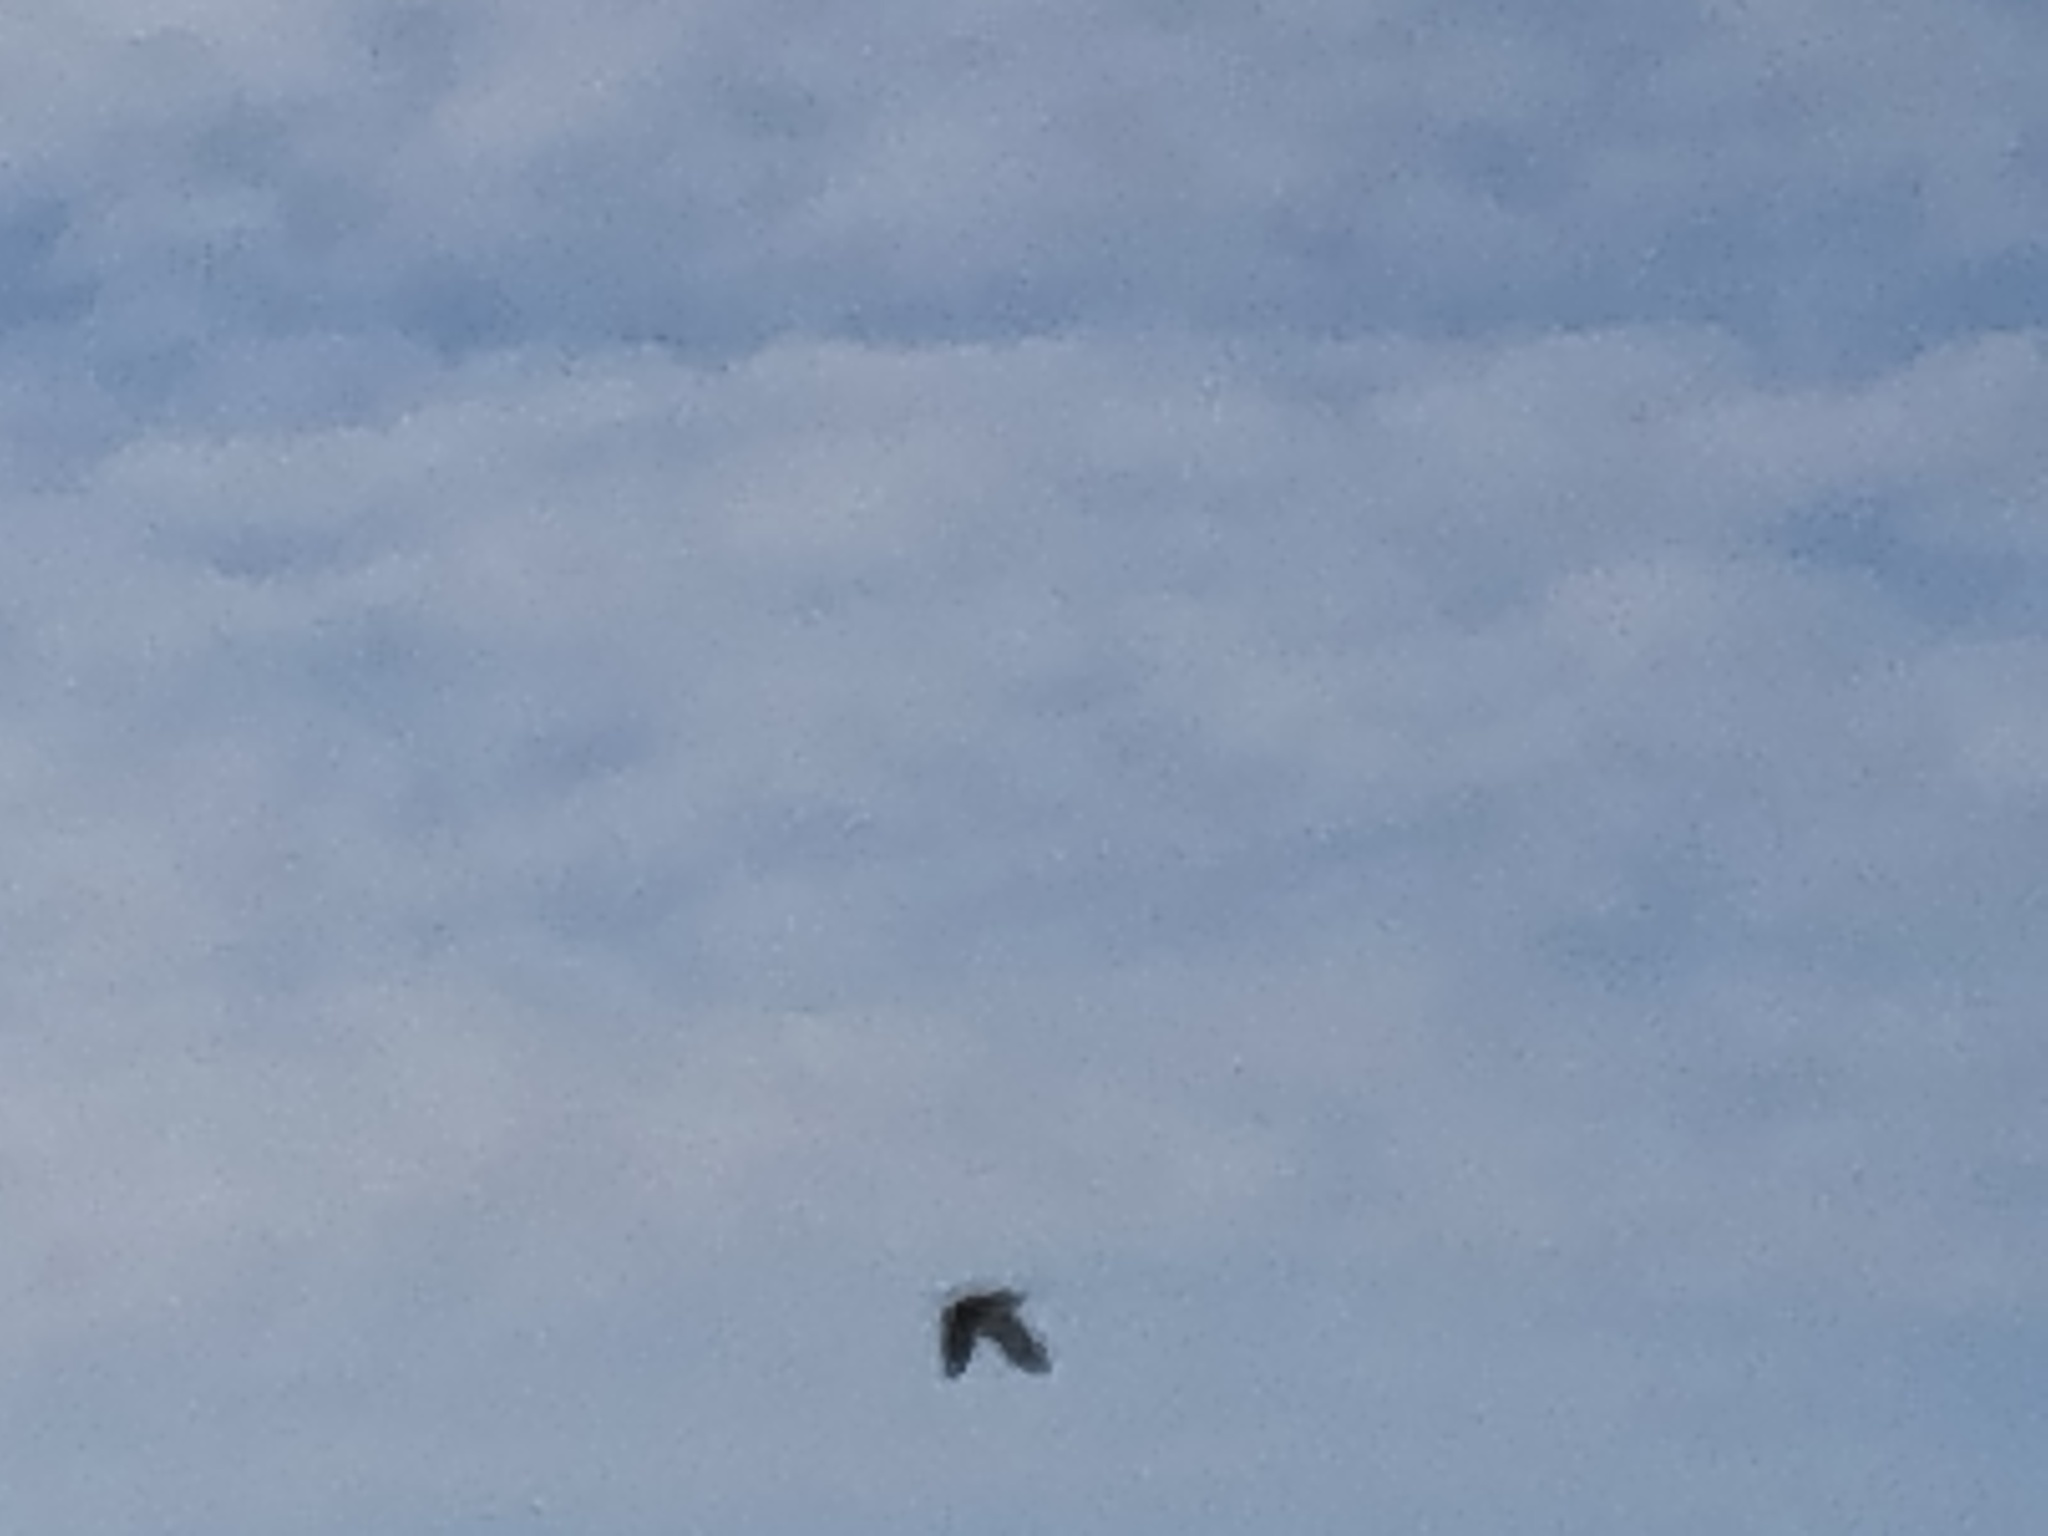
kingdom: Animalia
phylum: Chordata
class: Aves
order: Falconiformes
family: Falconidae
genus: Falco
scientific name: Falco sparverius
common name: American kestrel
